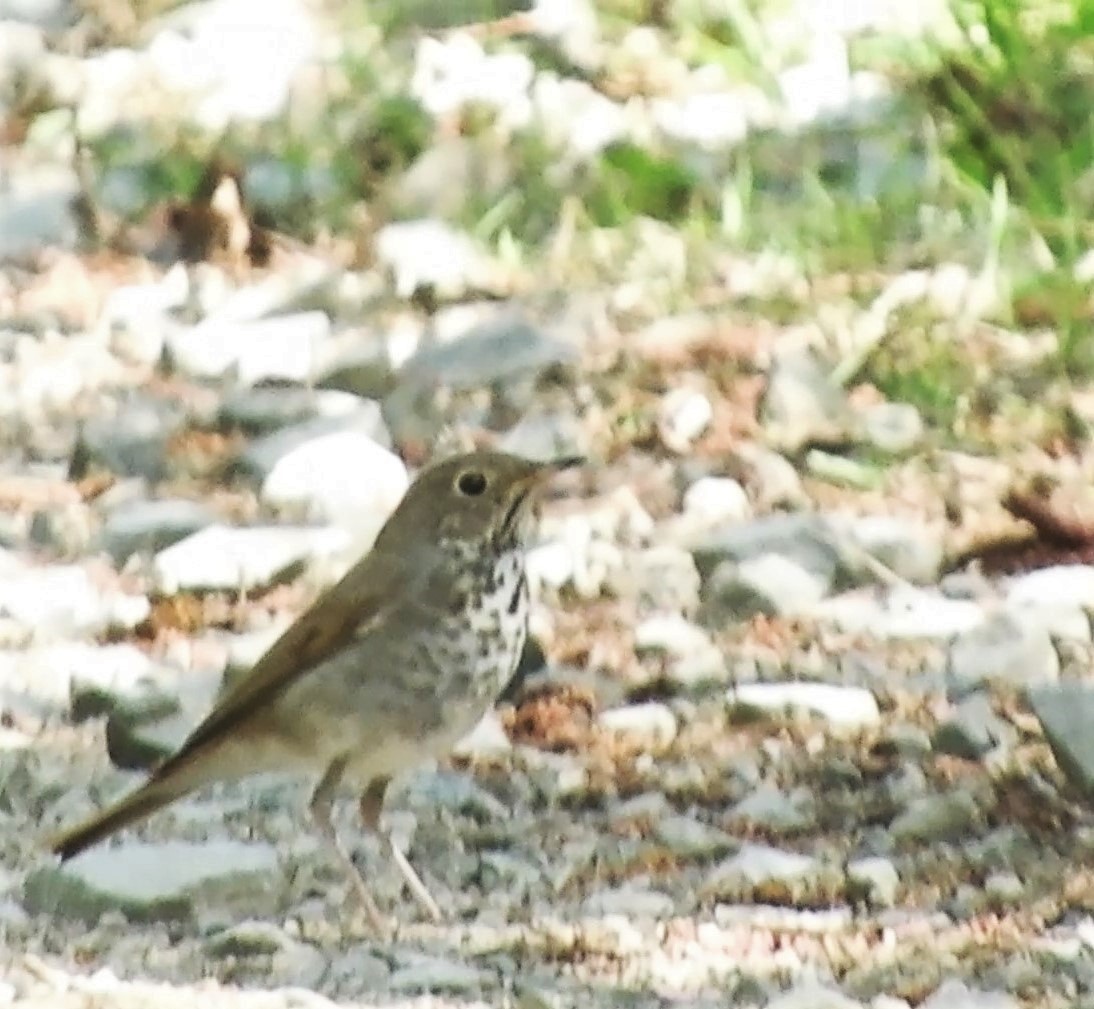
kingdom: Animalia
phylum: Chordata
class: Aves
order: Passeriformes
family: Turdidae
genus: Catharus
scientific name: Catharus guttatus
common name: Hermit thrush
